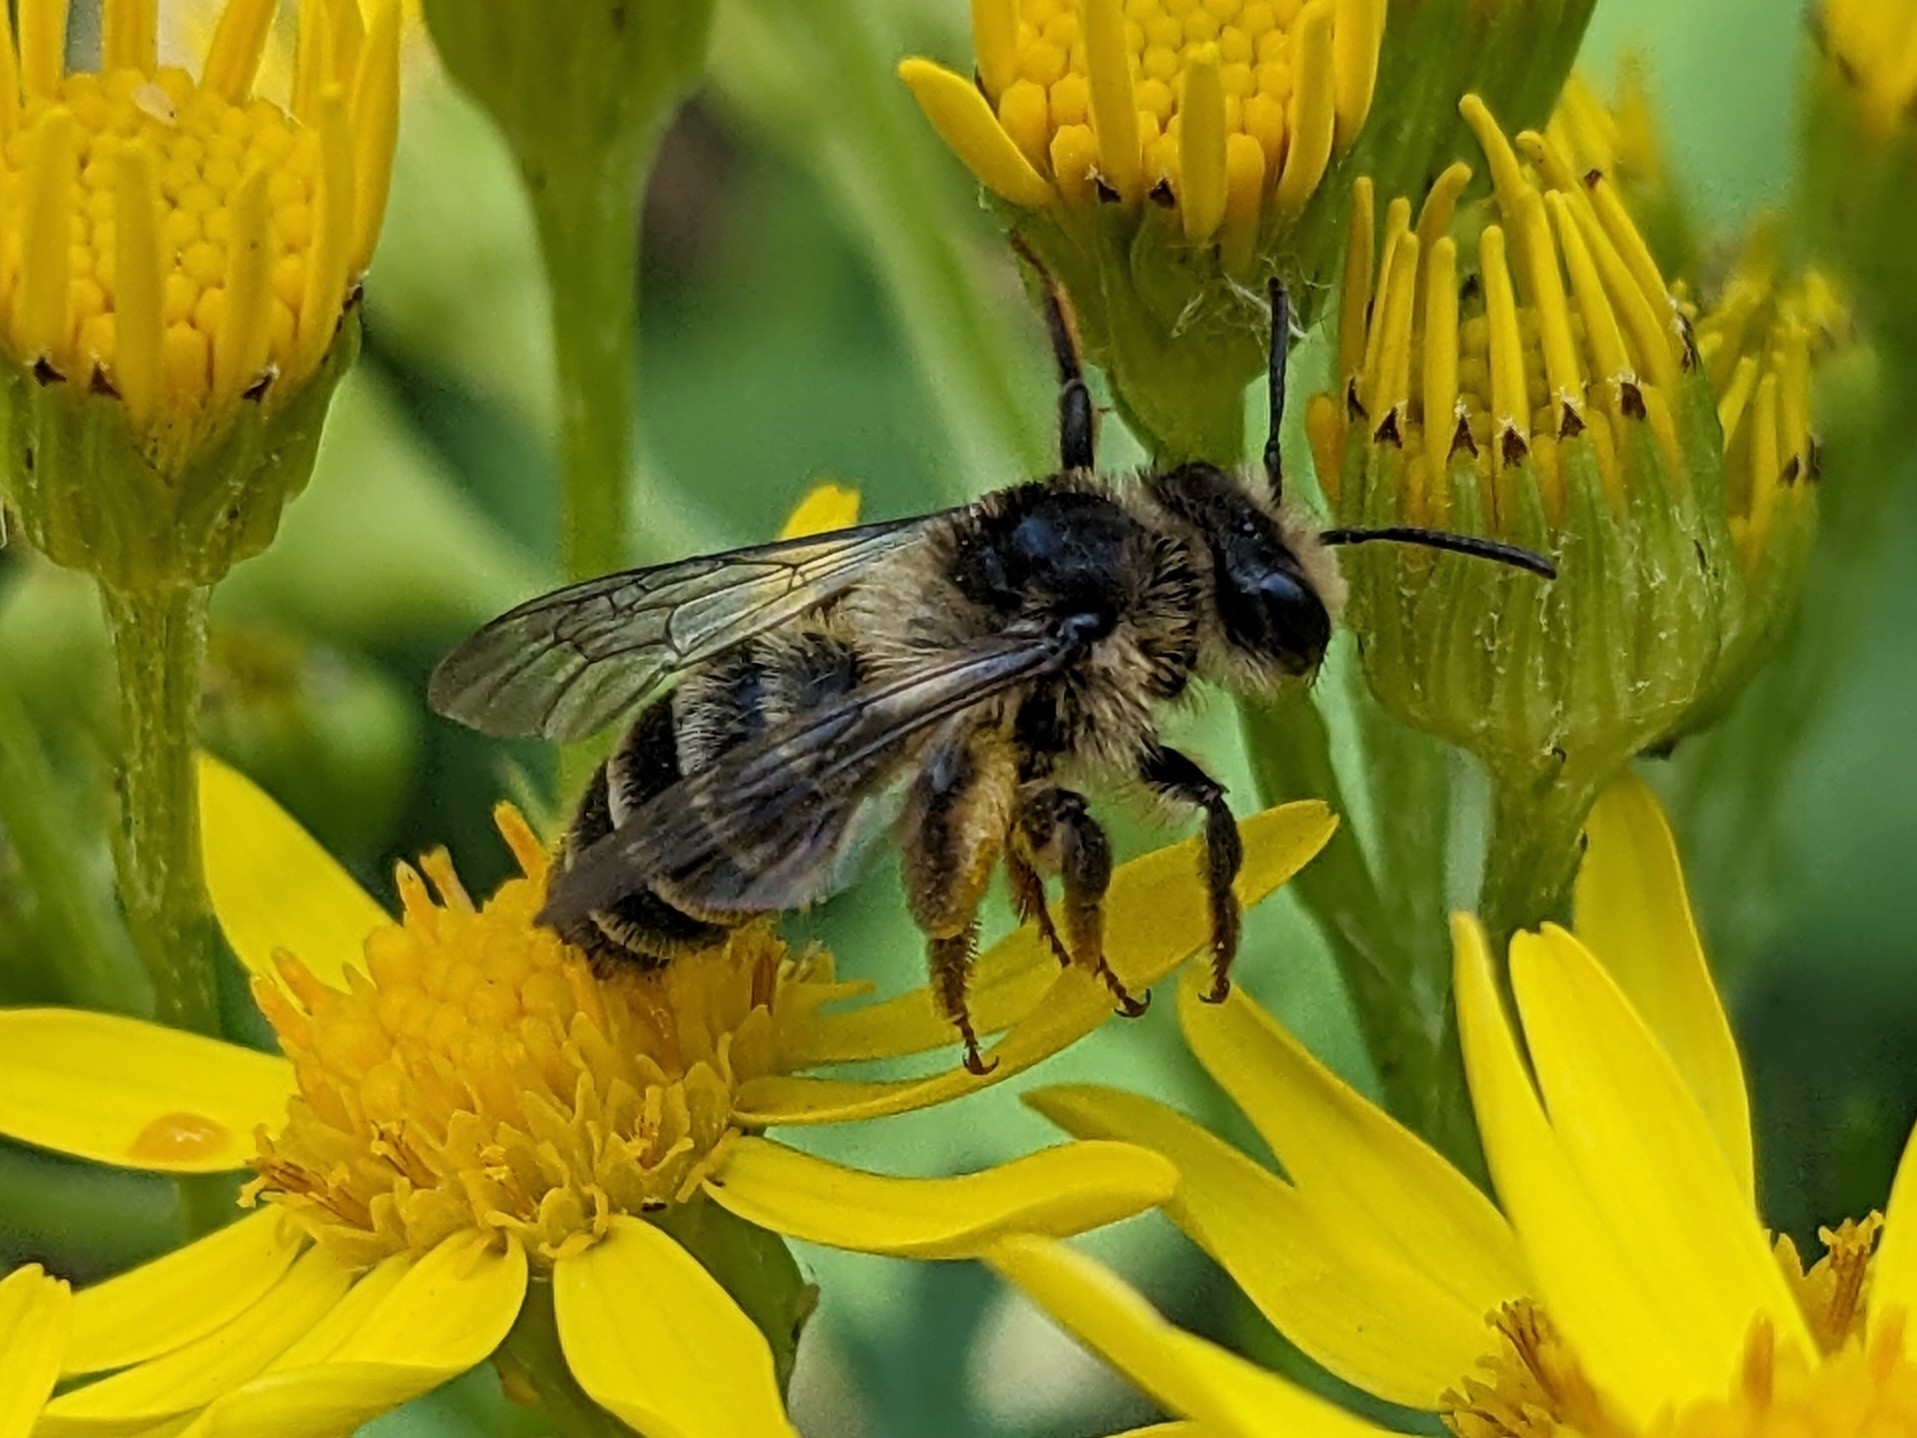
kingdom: Animalia
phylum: Arthropoda
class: Insecta
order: Hymenoptera
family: Andrenidae
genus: Andrena
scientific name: Andrena denticulata
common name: Grey-banded mining bee
